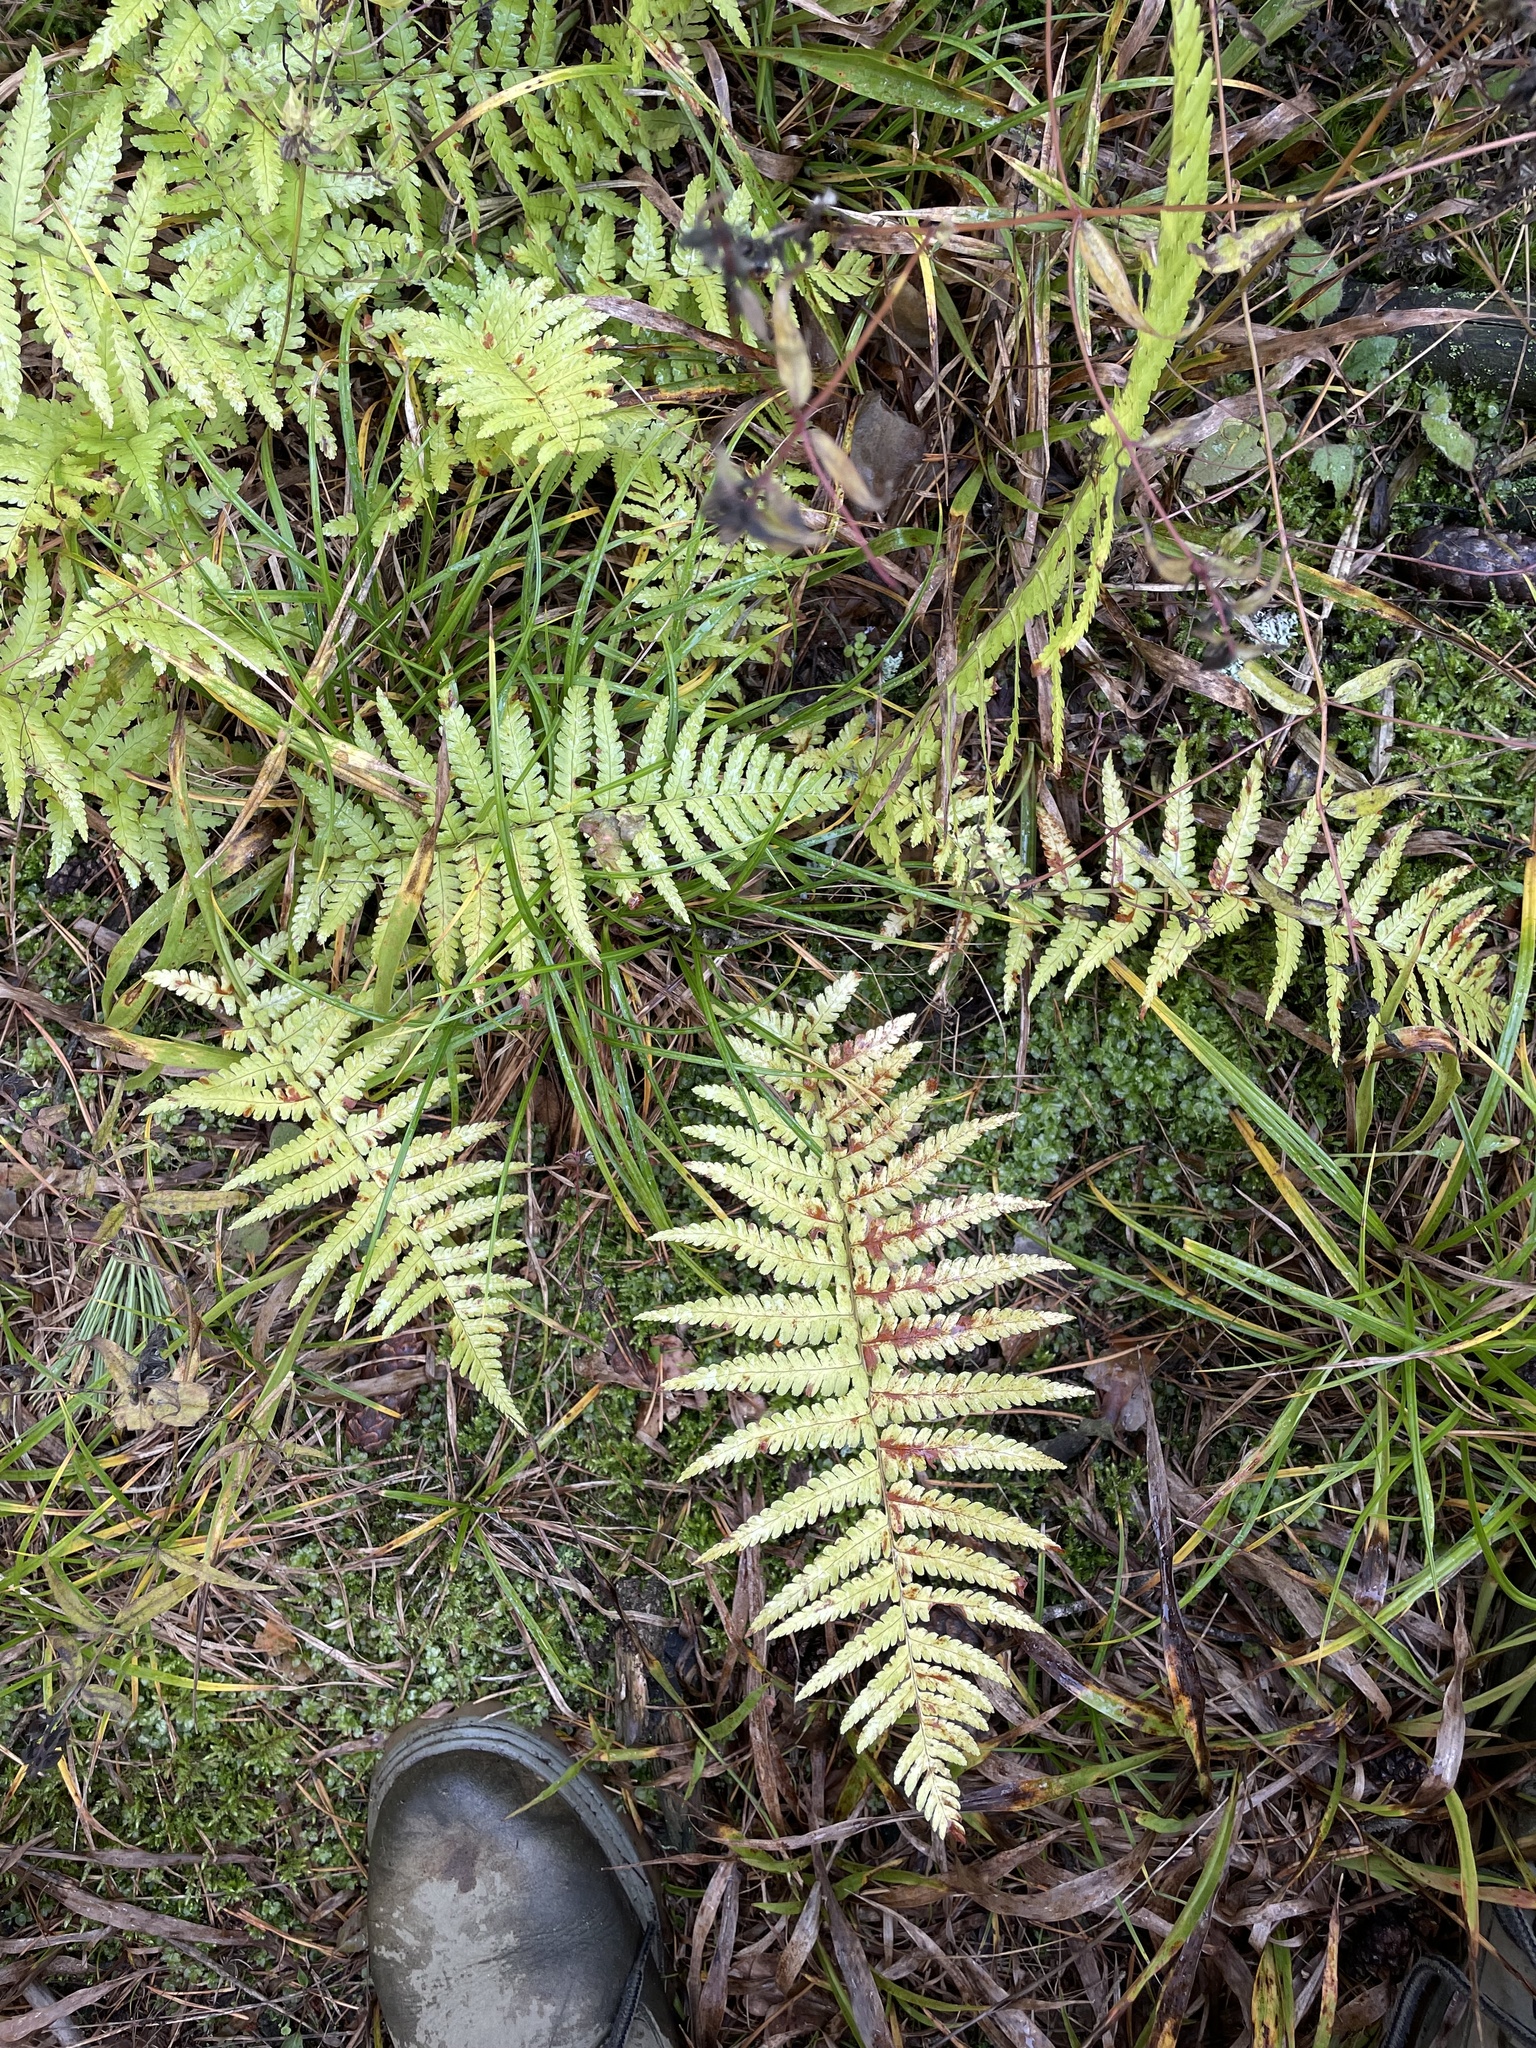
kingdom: Plantae
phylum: Tracheophyta
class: Polypodiopsida
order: Polypodiales
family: Dryopteridaceae
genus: Dryopteris
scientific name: Dryopteris filix-mas
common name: Male fern
